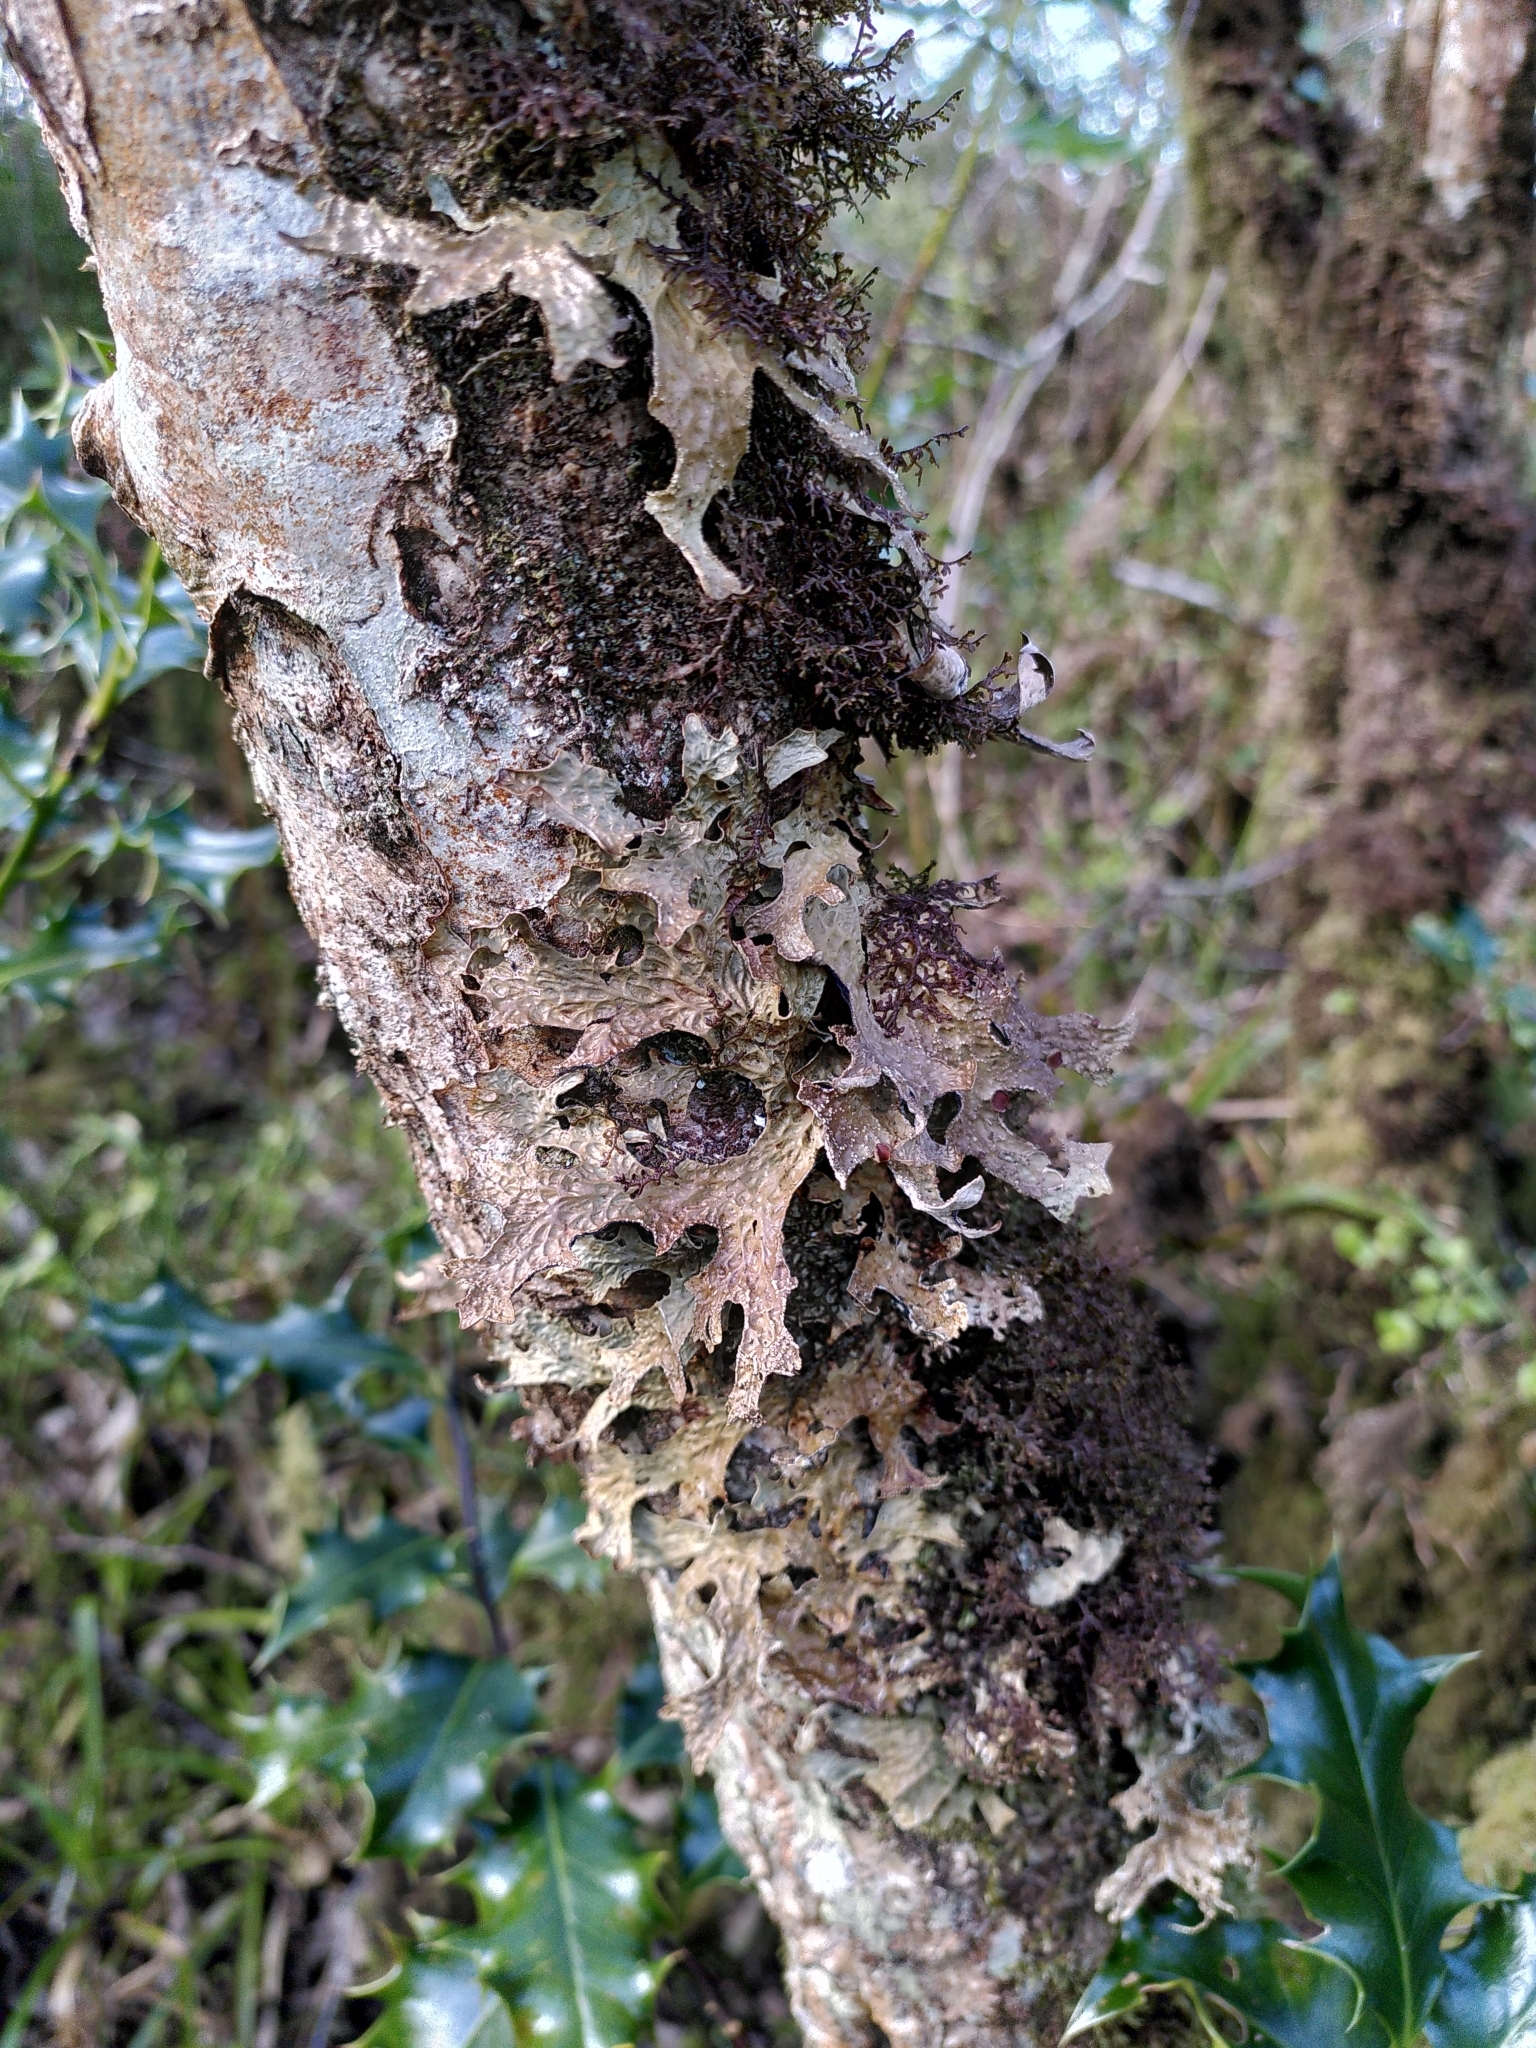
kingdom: Fungi
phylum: Ascomycota
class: Lecanoromycetes
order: Peltigerales
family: Lobariaceae
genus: Lobaria
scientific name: Lobaria pulmonaria
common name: Lungwort
